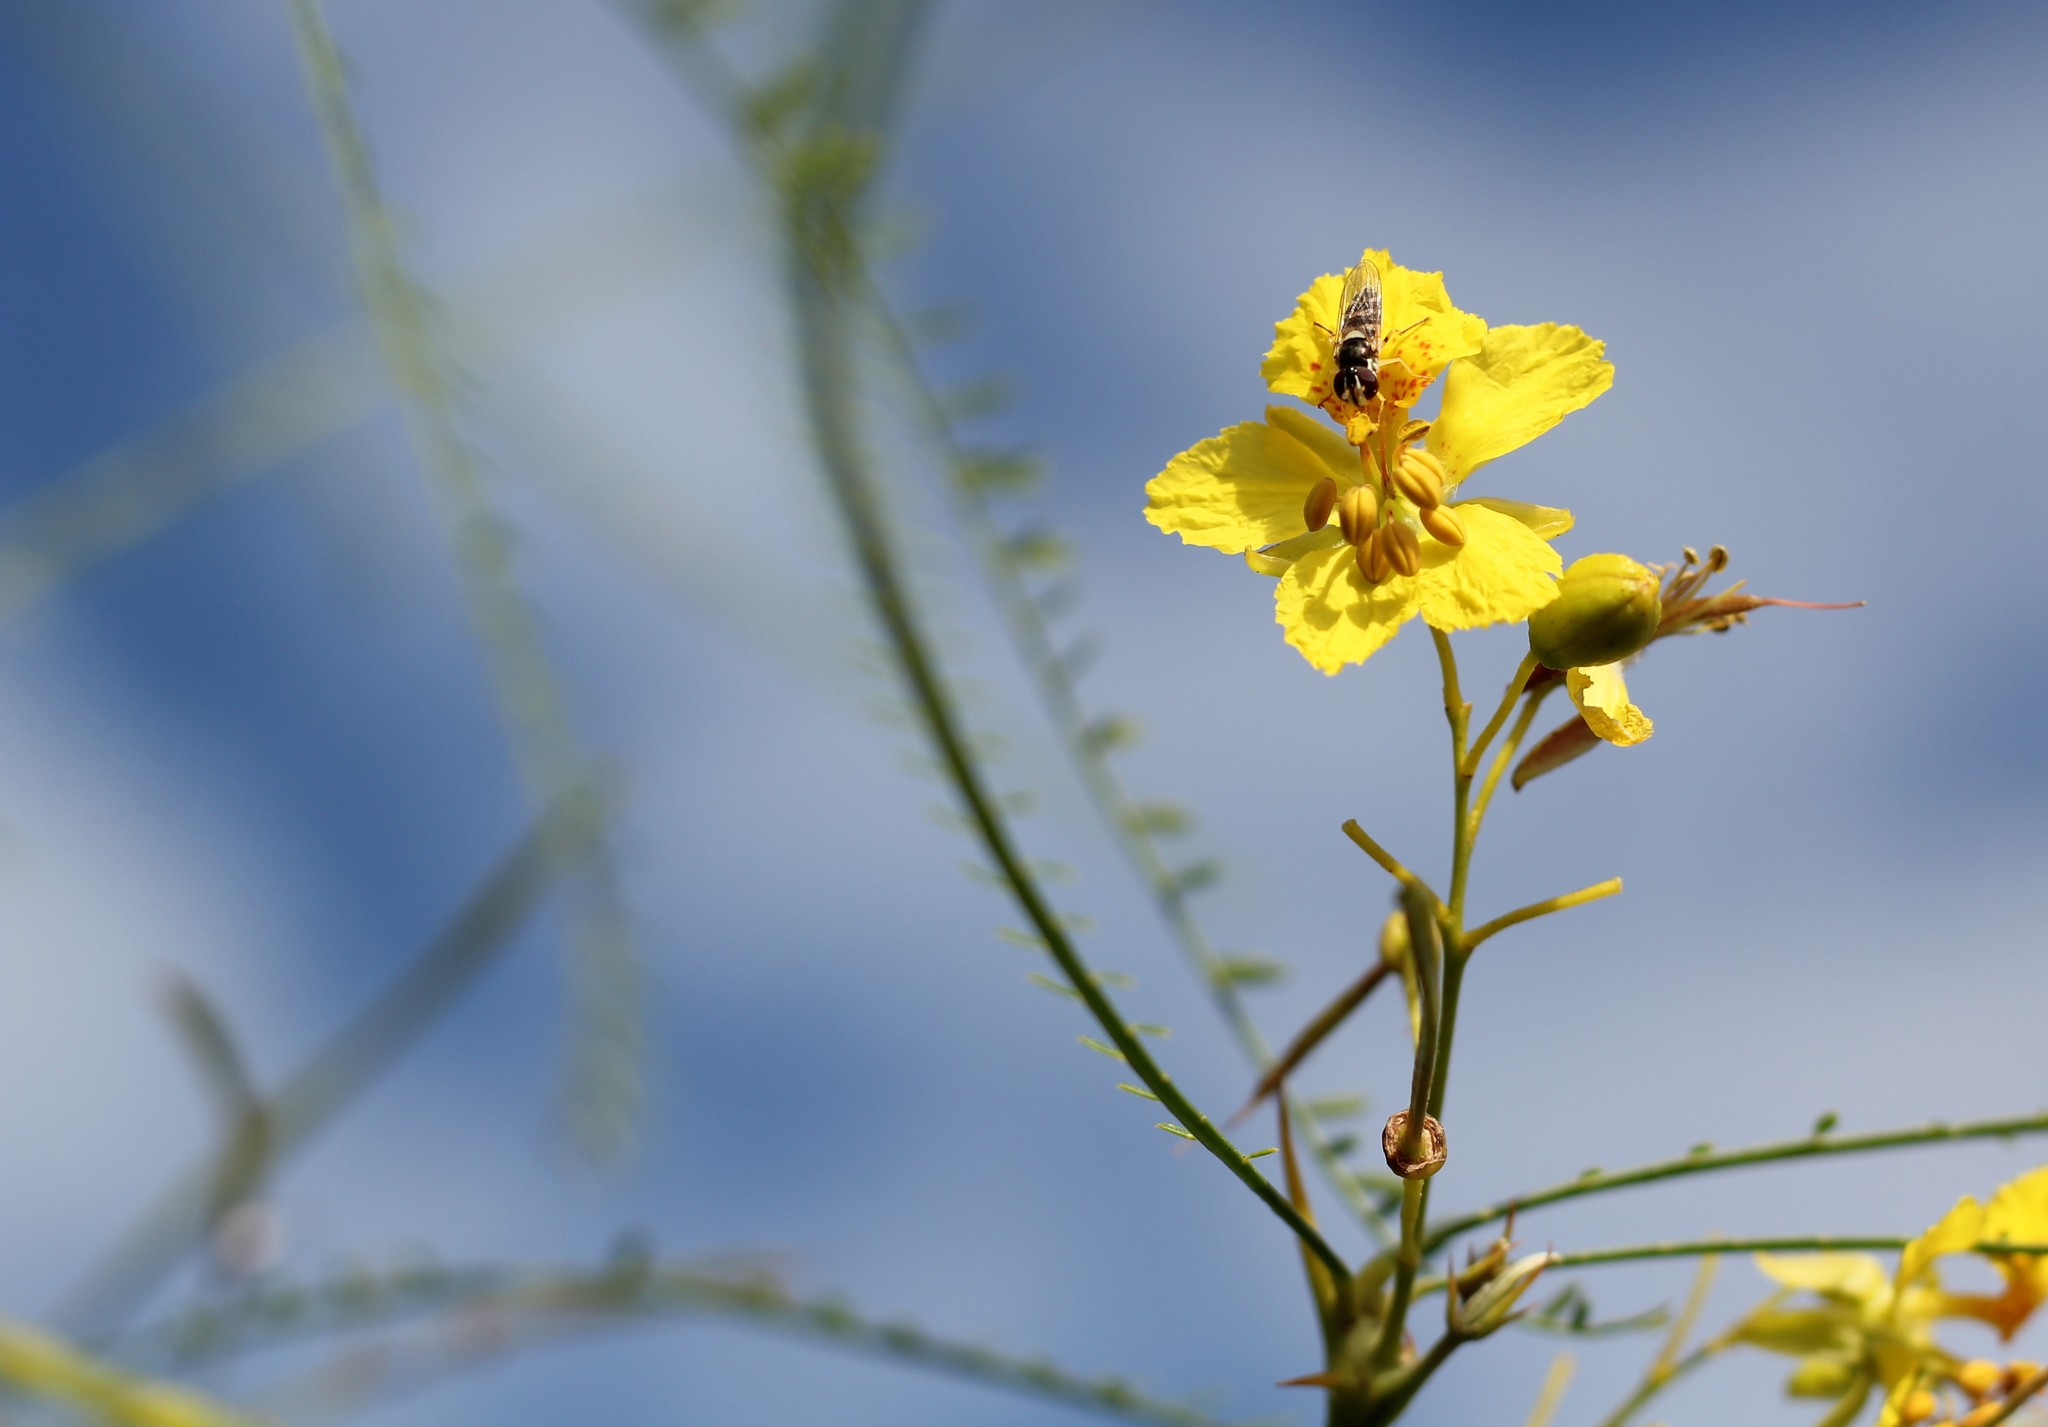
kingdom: Animalia
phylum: Arthropoda
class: Insecta
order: Diptera
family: Syrphidae
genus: Allograpta
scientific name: Allograpta
